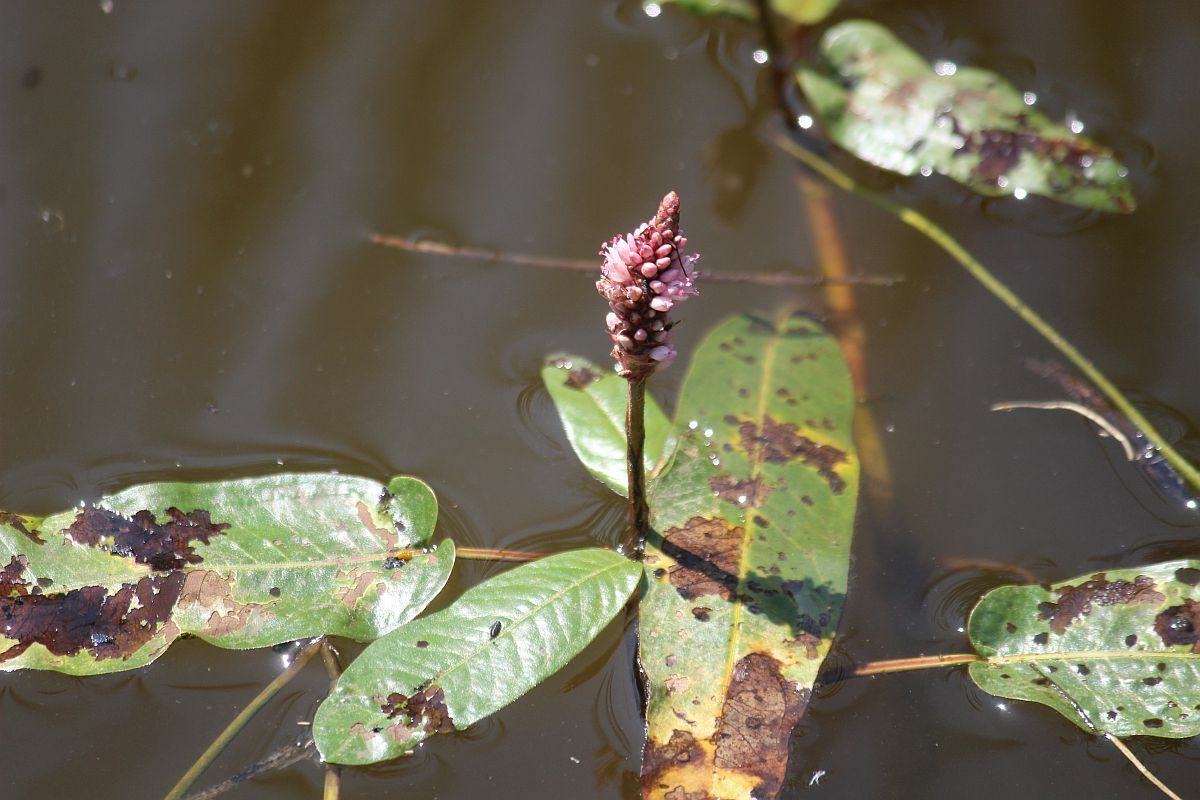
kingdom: Plantae
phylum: Tracheophyta
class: Magnoliopsida
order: Caryophyllales
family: Polygonaceae
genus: Persicaria
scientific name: Persicaria amphibia
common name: Amphibious bistort
